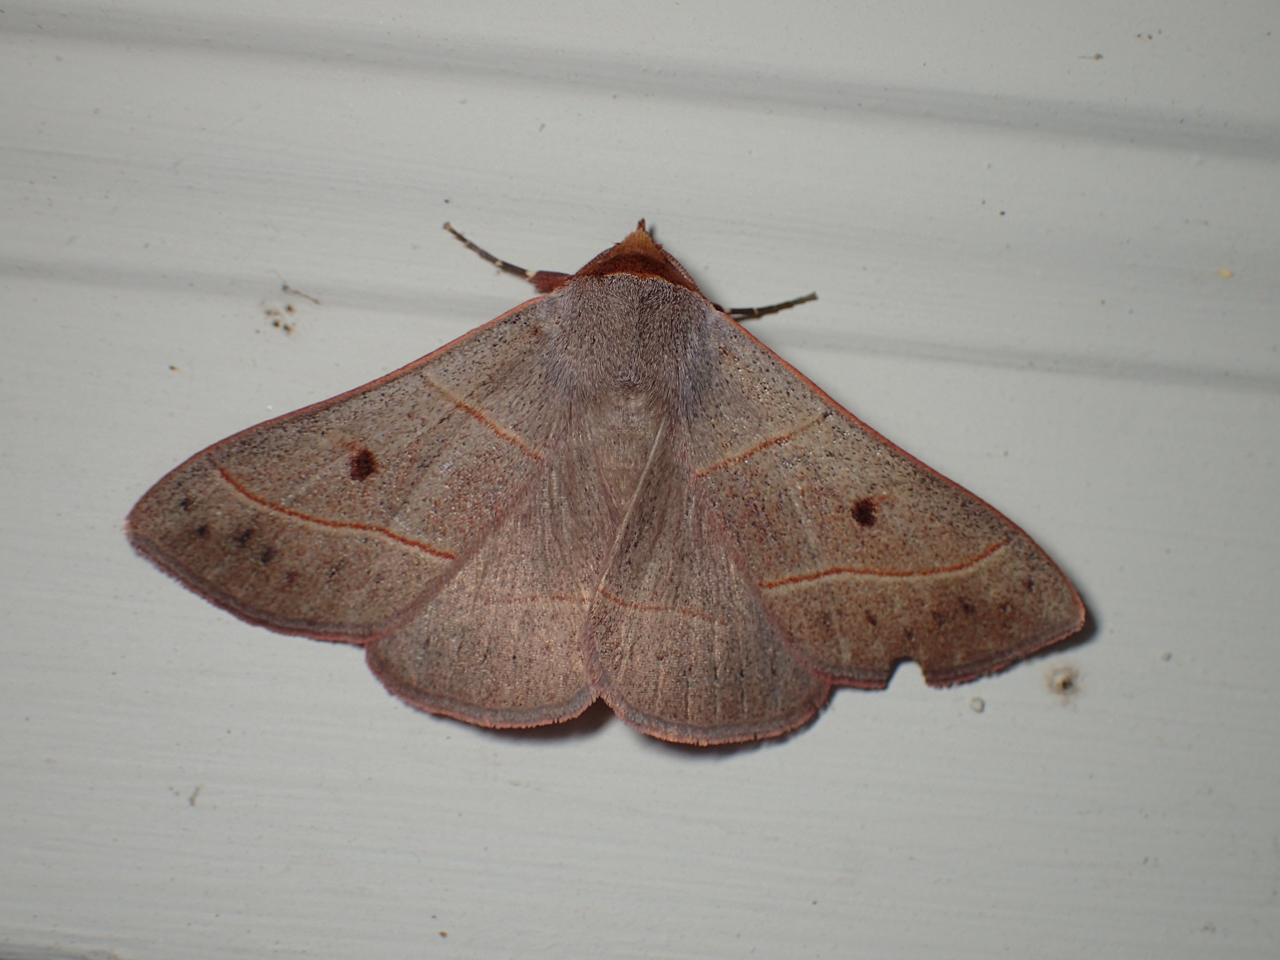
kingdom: Animalia
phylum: Arthropoda
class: Insecta
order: Lepidoptera
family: Erebidae
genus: Panopoda
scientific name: Panopoda rufimargo
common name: Red-lined panopoda moth
